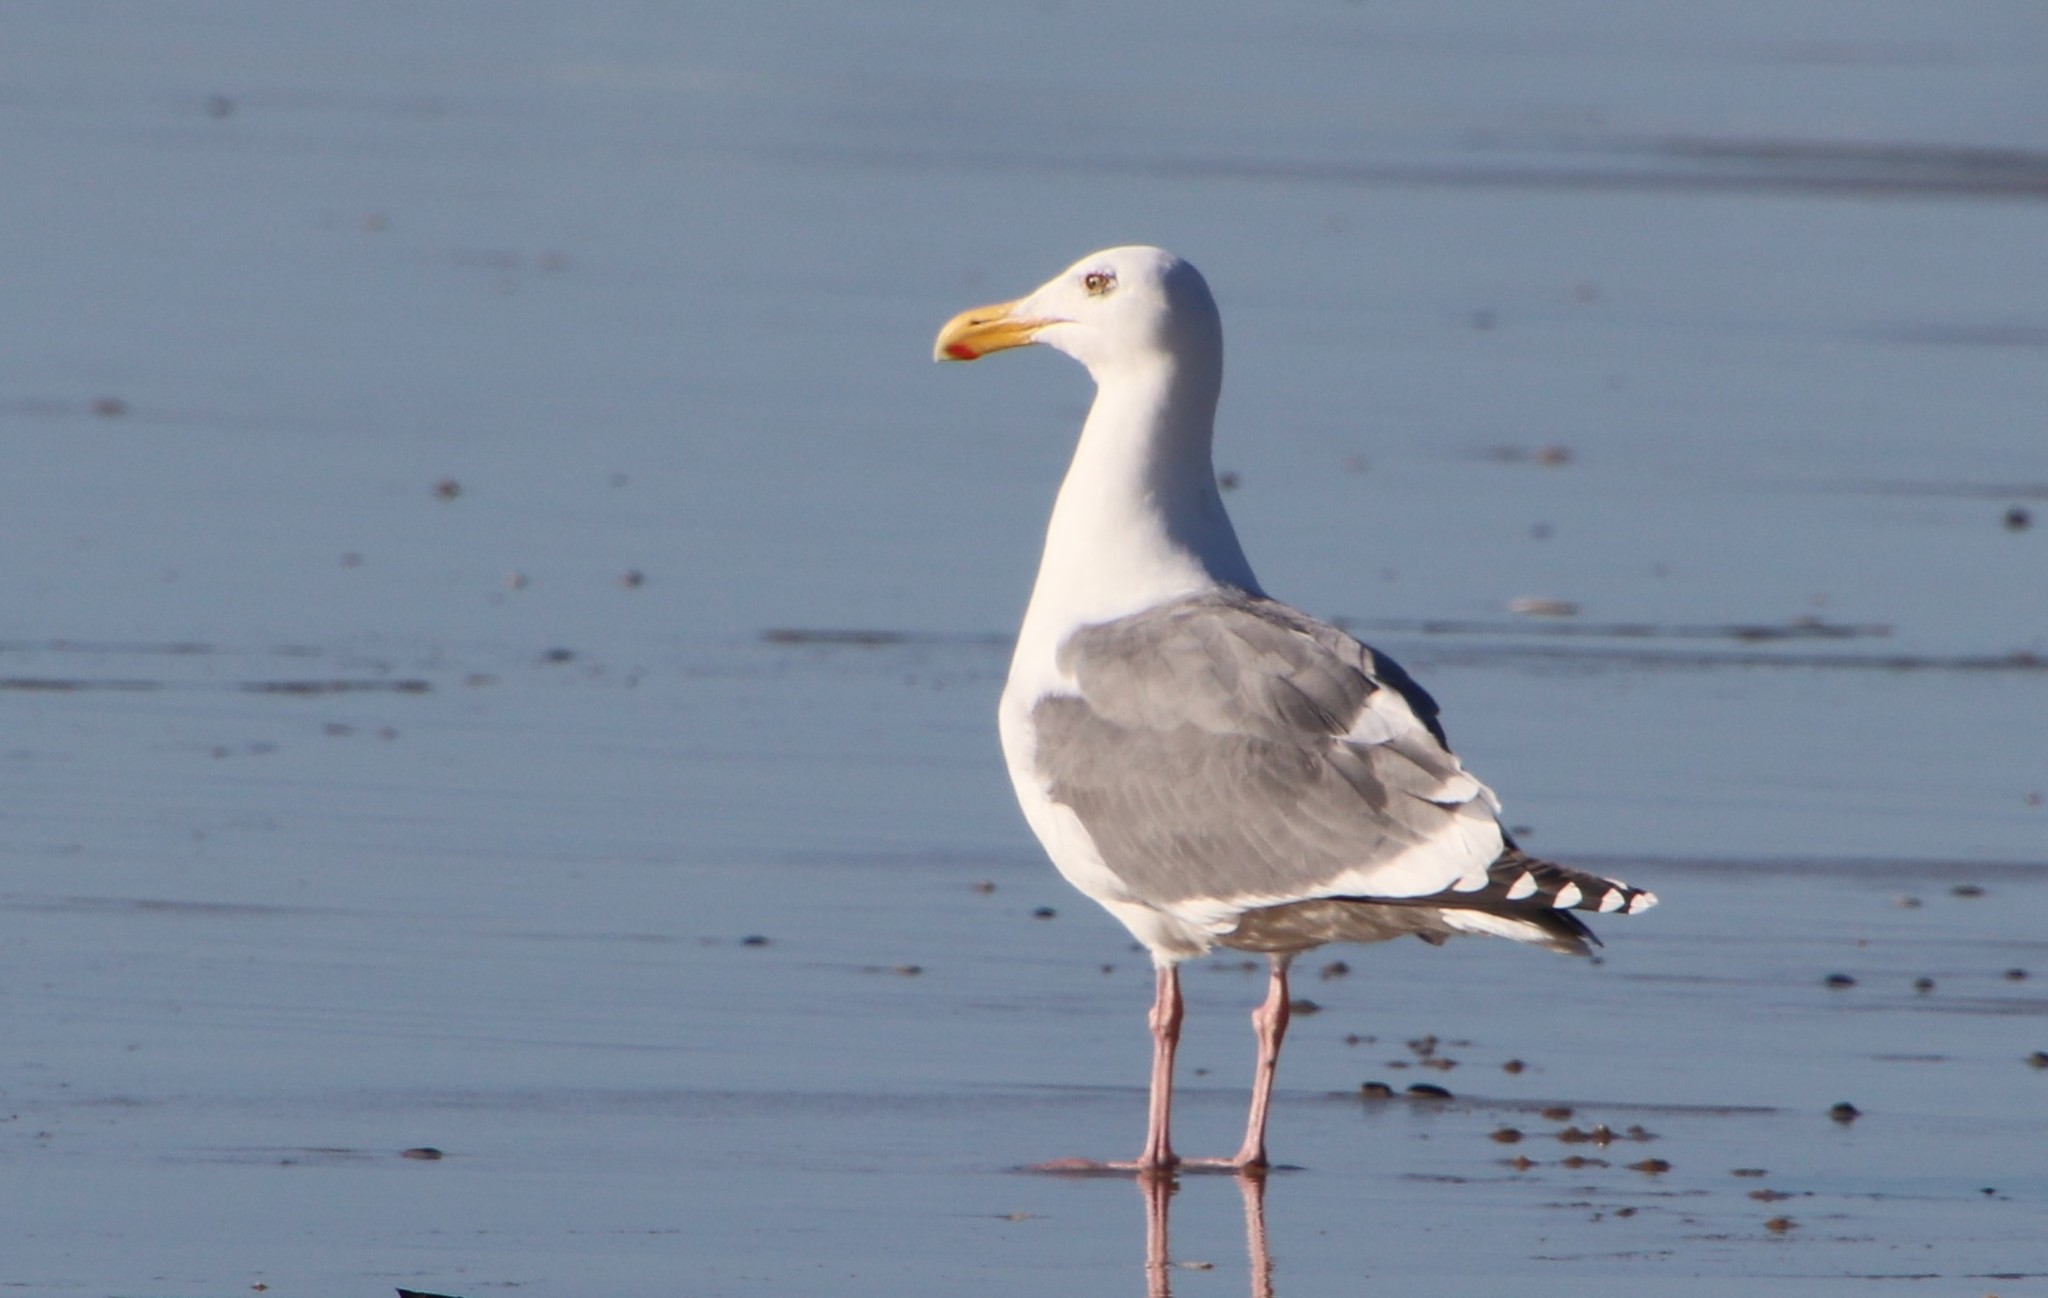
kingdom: Animalia
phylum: Chordata
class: Aves
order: Charadriiformes
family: Laridae
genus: Larus
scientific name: Larus occidentalis
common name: Western gull
